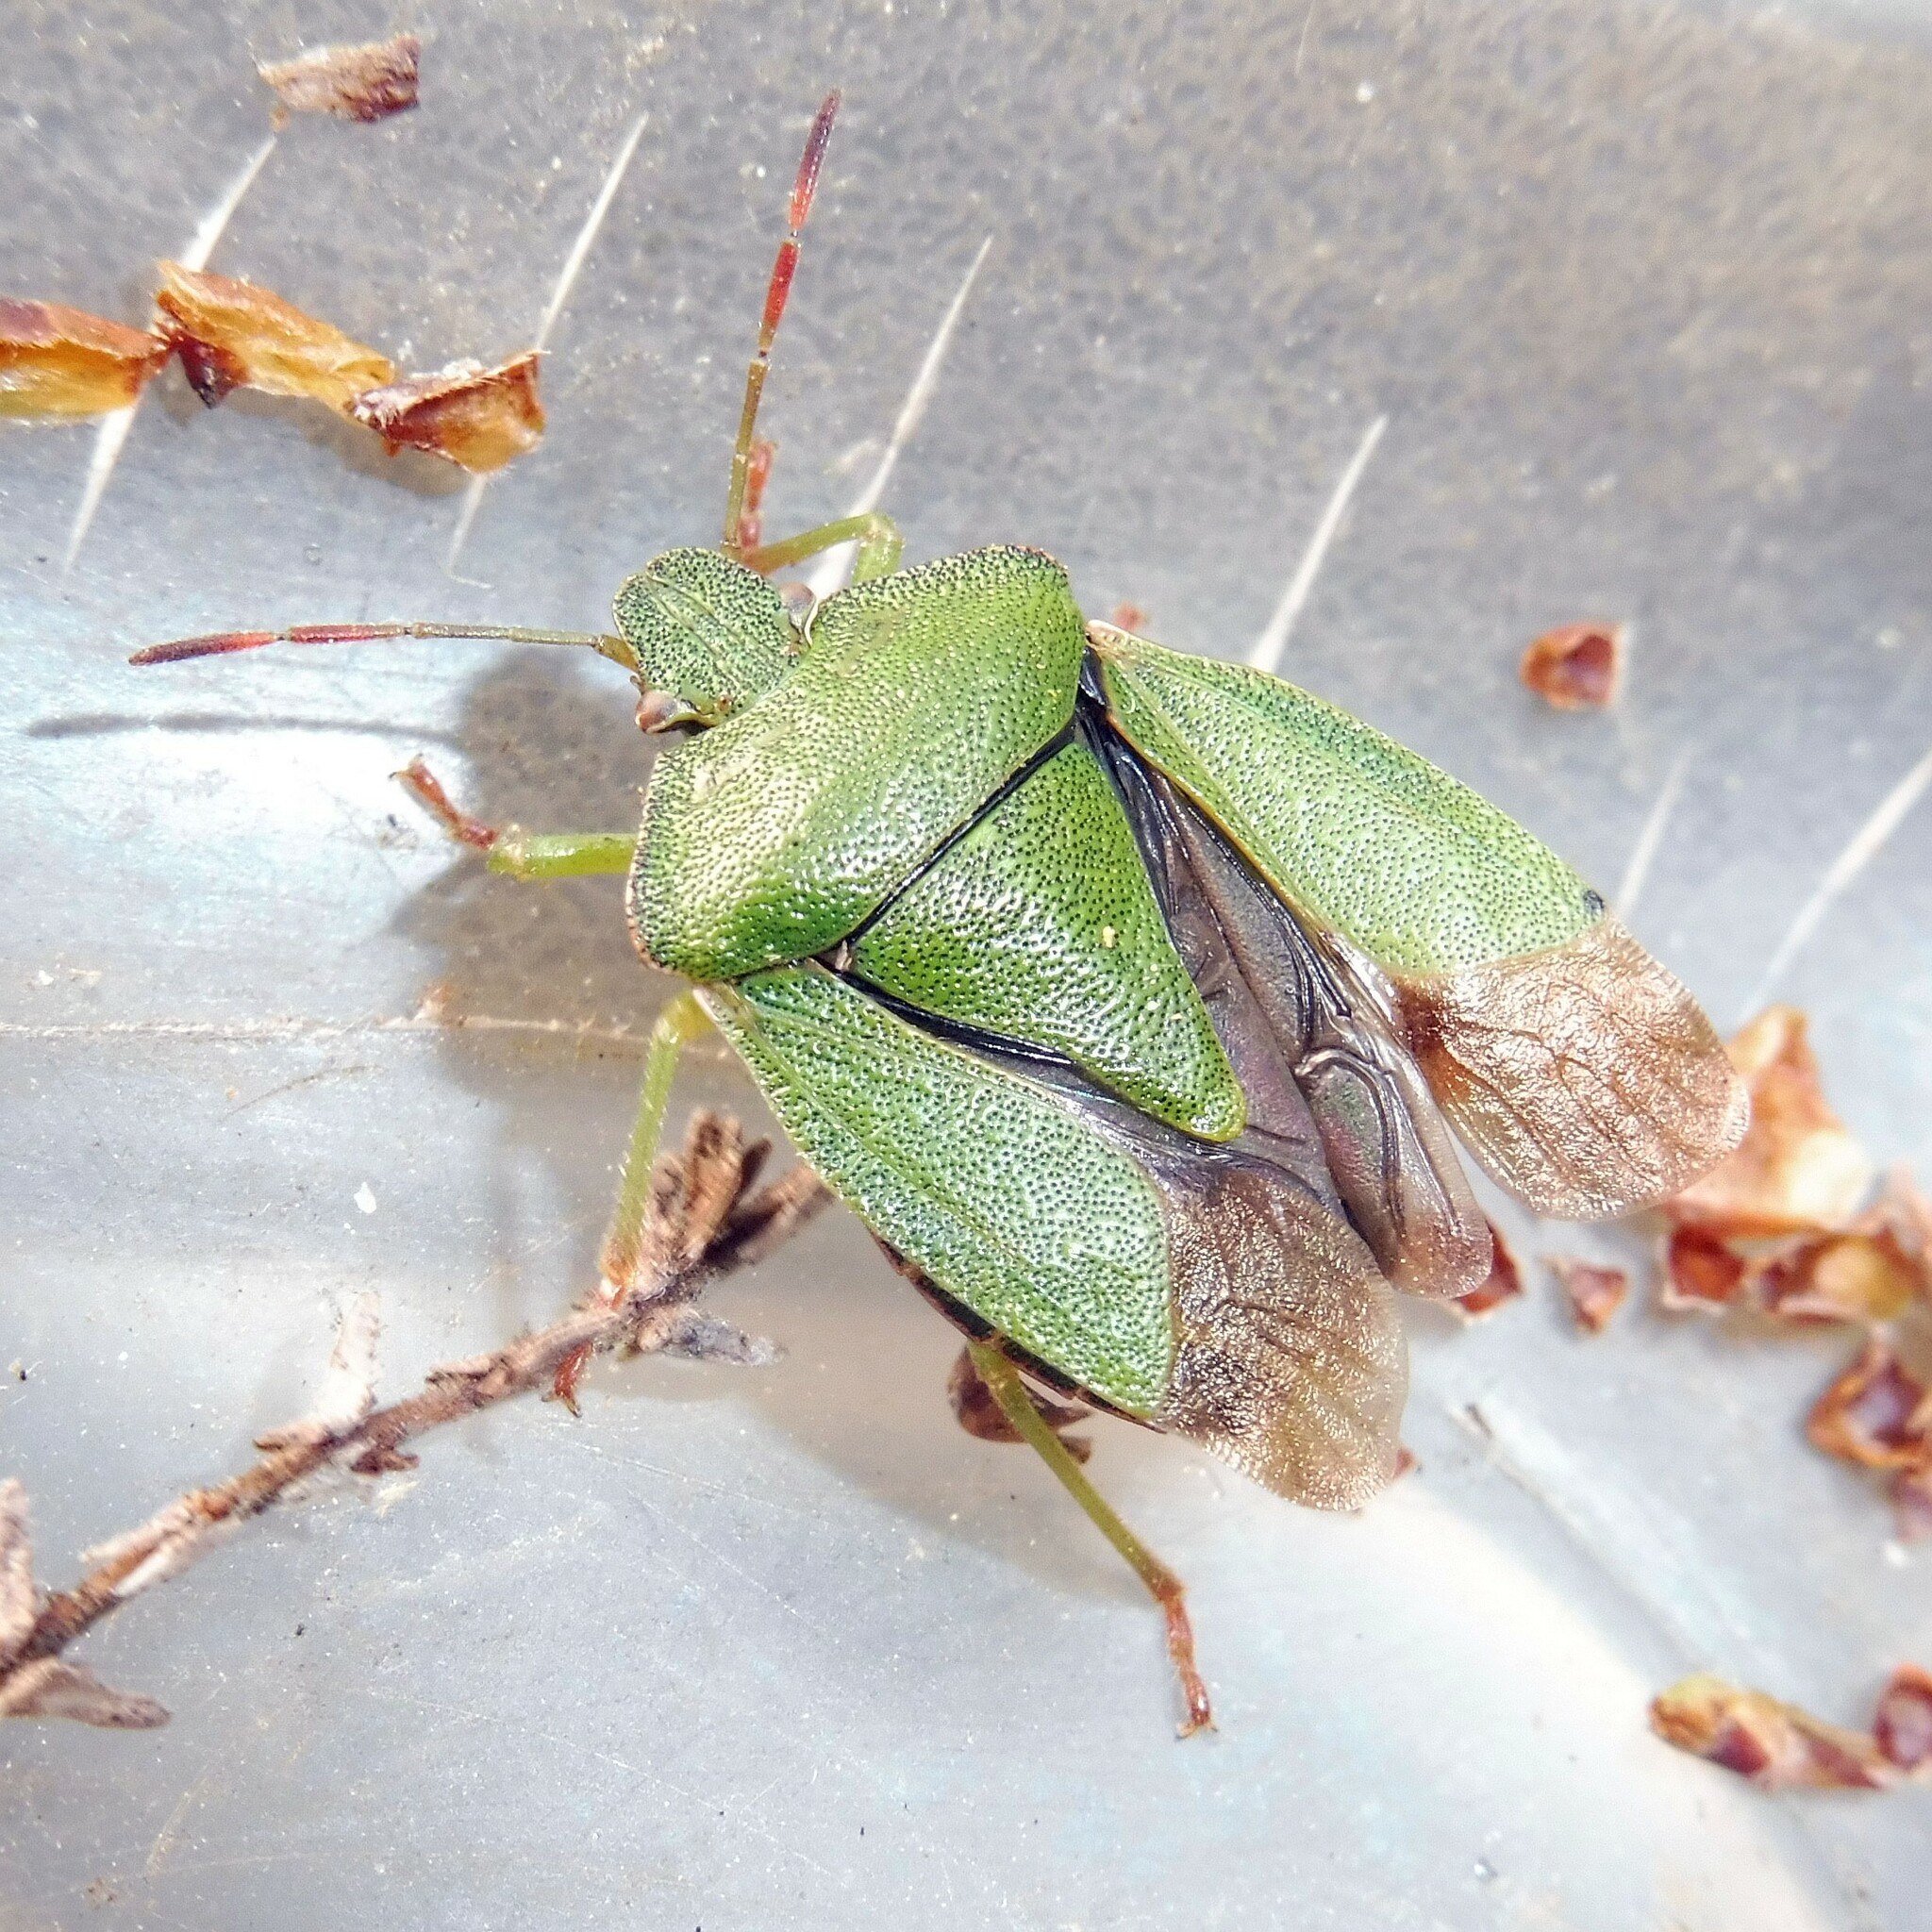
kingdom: Animalia
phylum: Arthropoda
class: Insecta
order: Hemiptera
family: Pentatomidae
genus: Palomena
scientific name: Palomena prasina
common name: Green shieldbug
